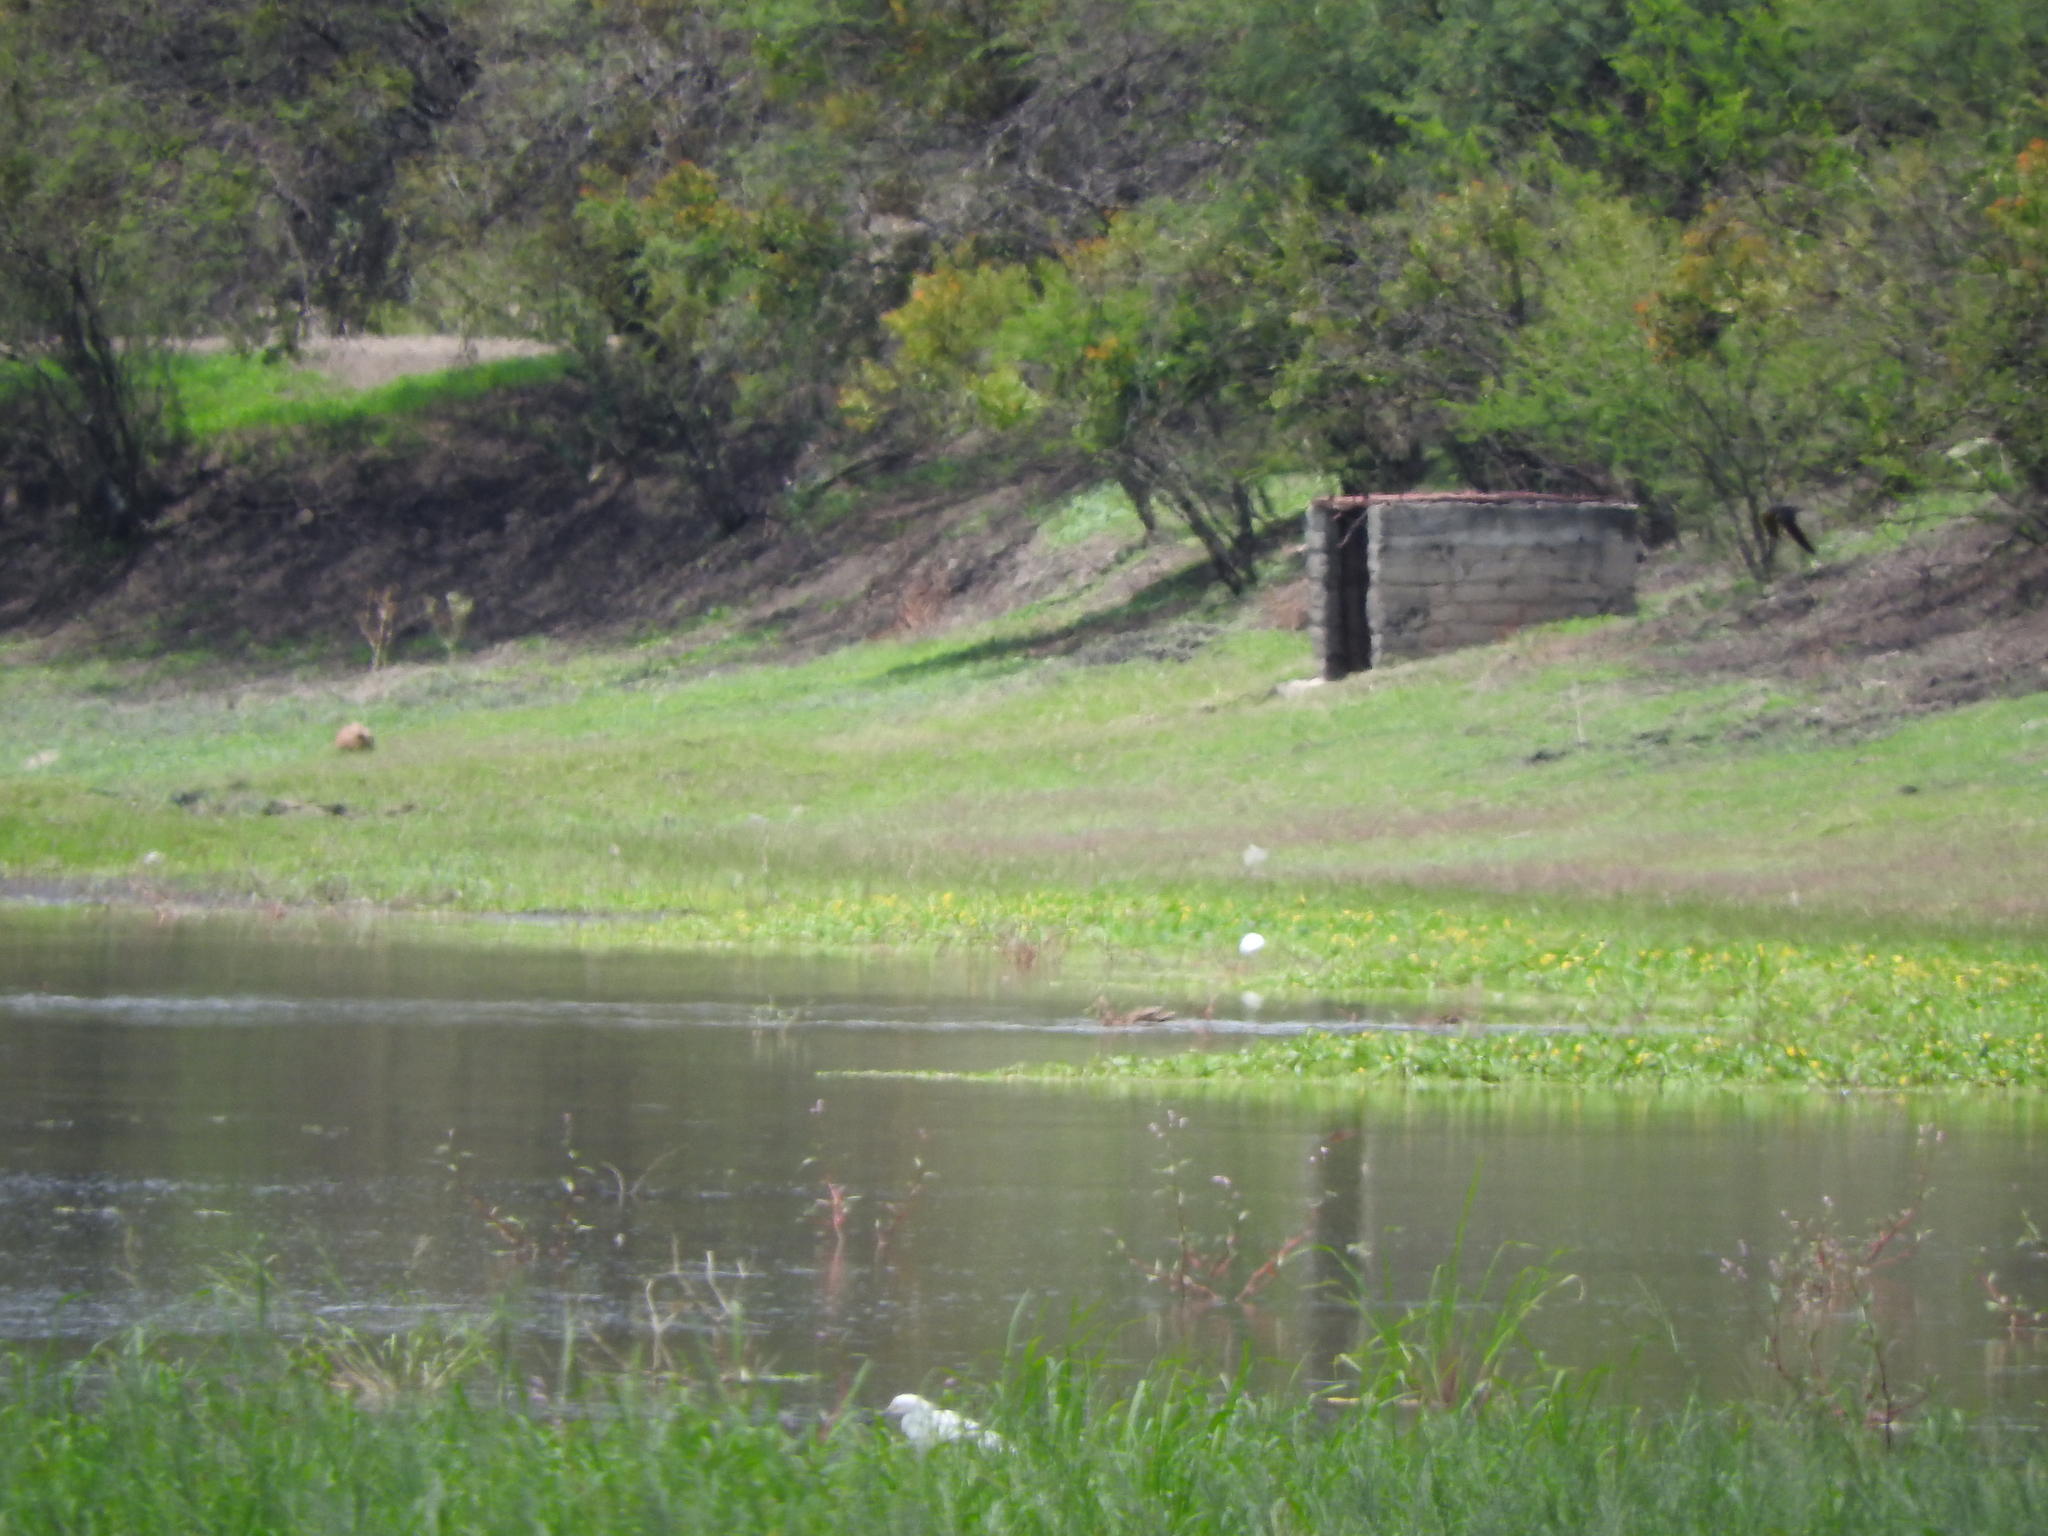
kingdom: Animalia
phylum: Chordata
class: Aves
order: Pelecaniformes
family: Ardeidae
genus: Egretta
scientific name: Egretta thula
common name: Snowy egret
